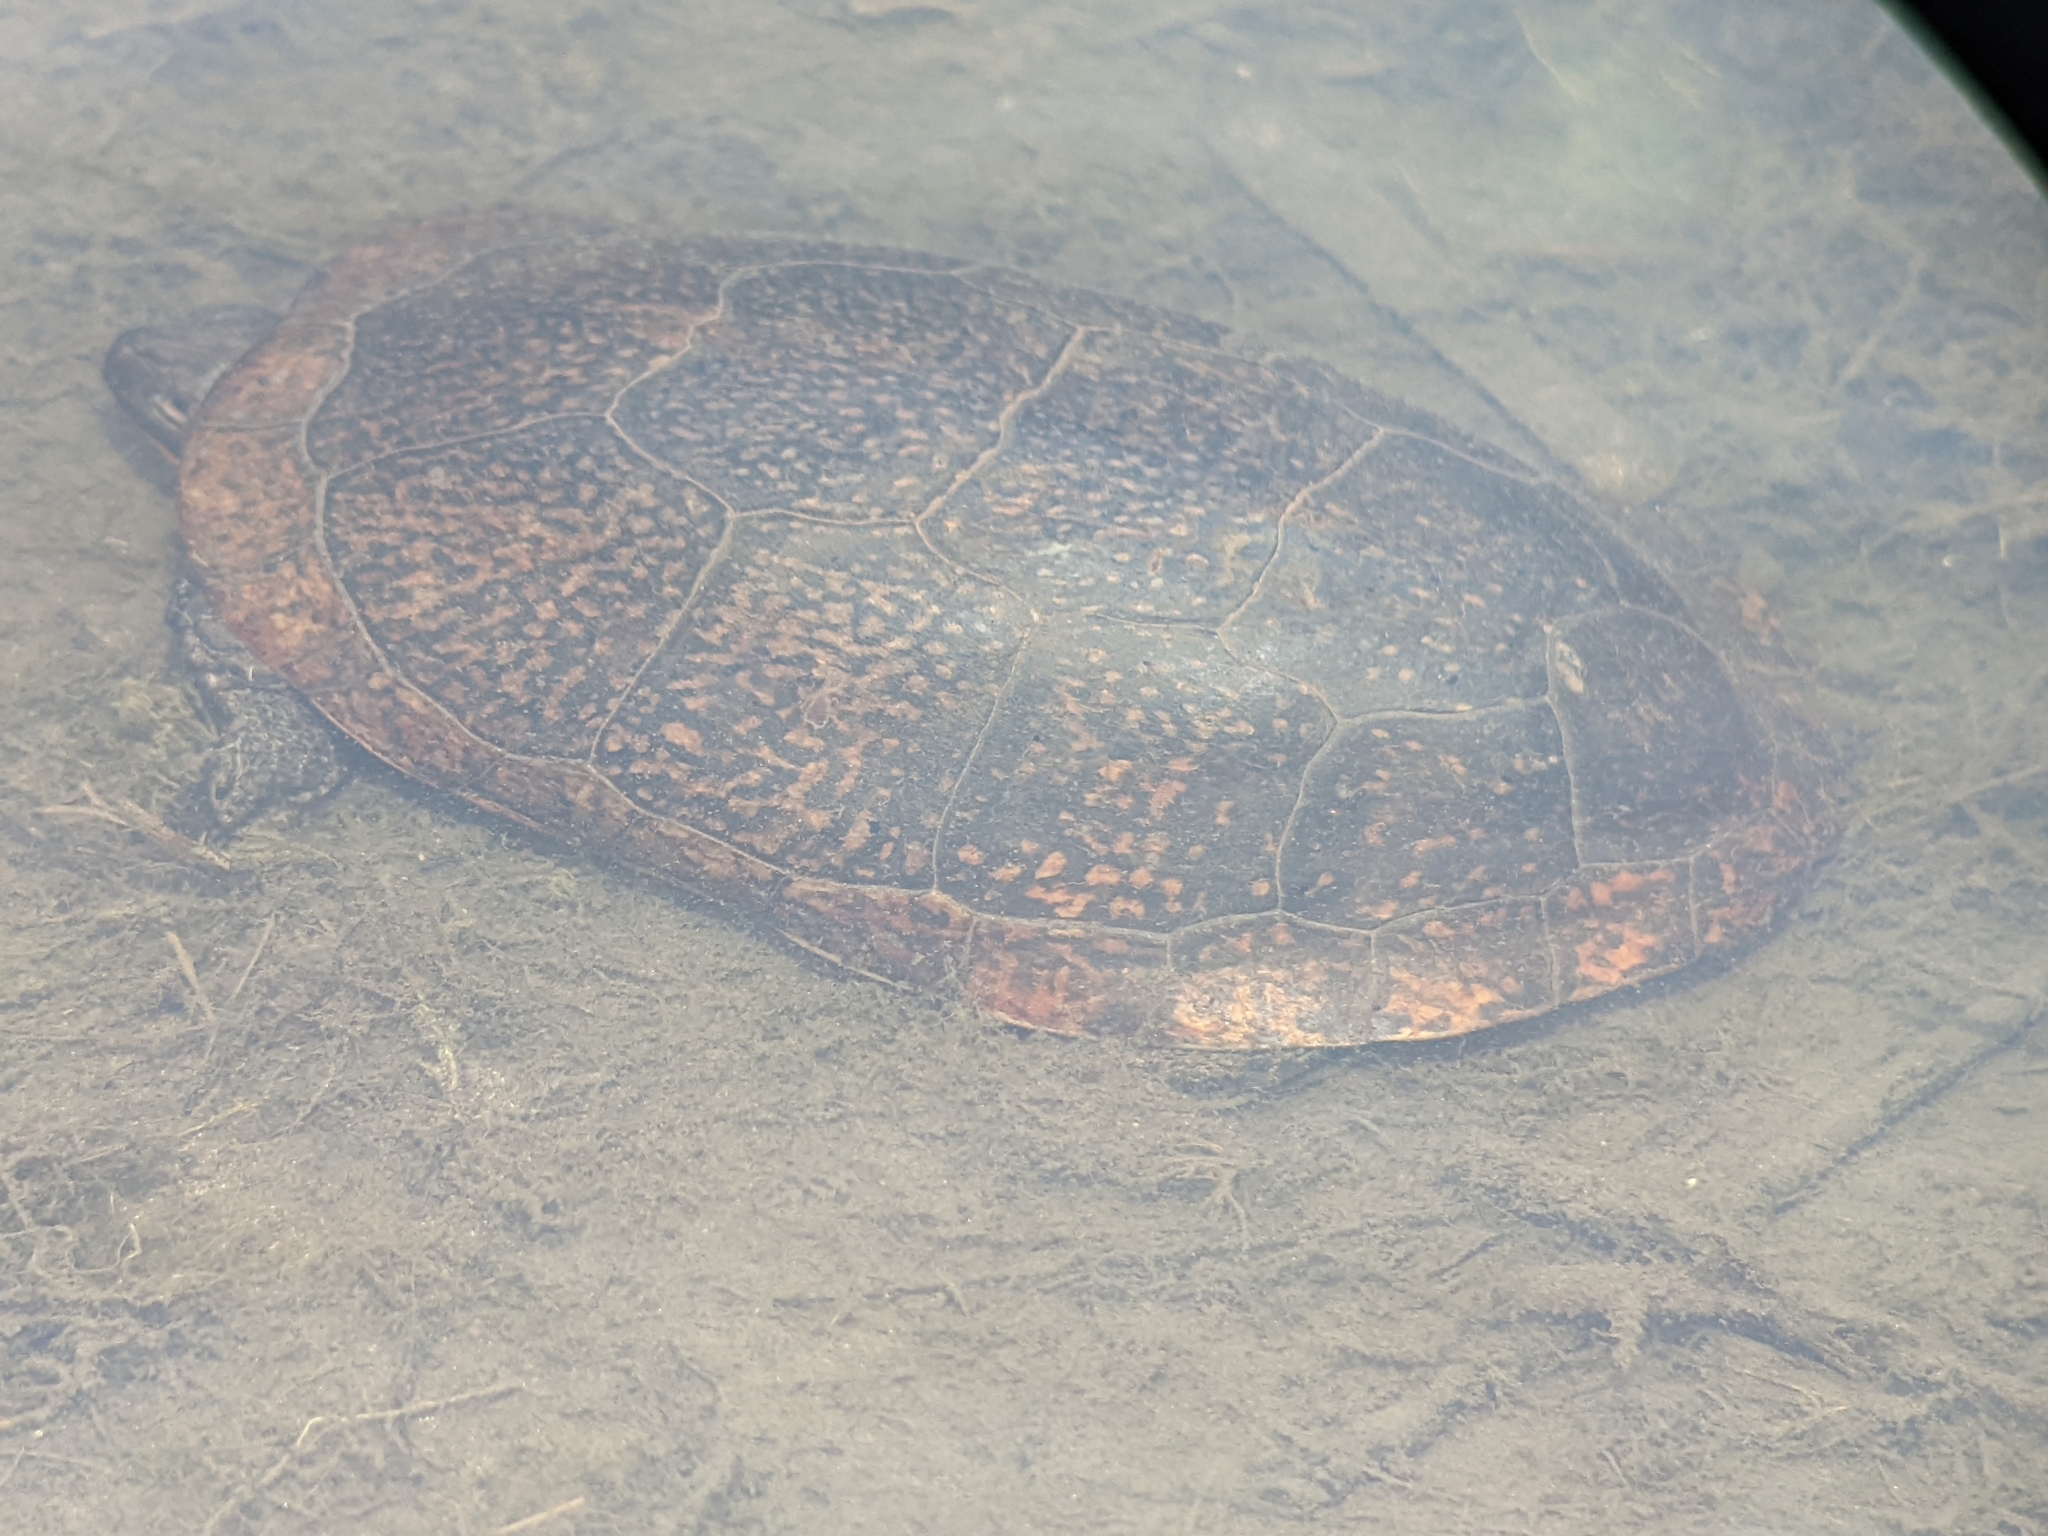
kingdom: Animalia
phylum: Chordata
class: Testudines
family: Emydidae
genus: Emys
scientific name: Emys blandingii
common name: Blanding's turtle
